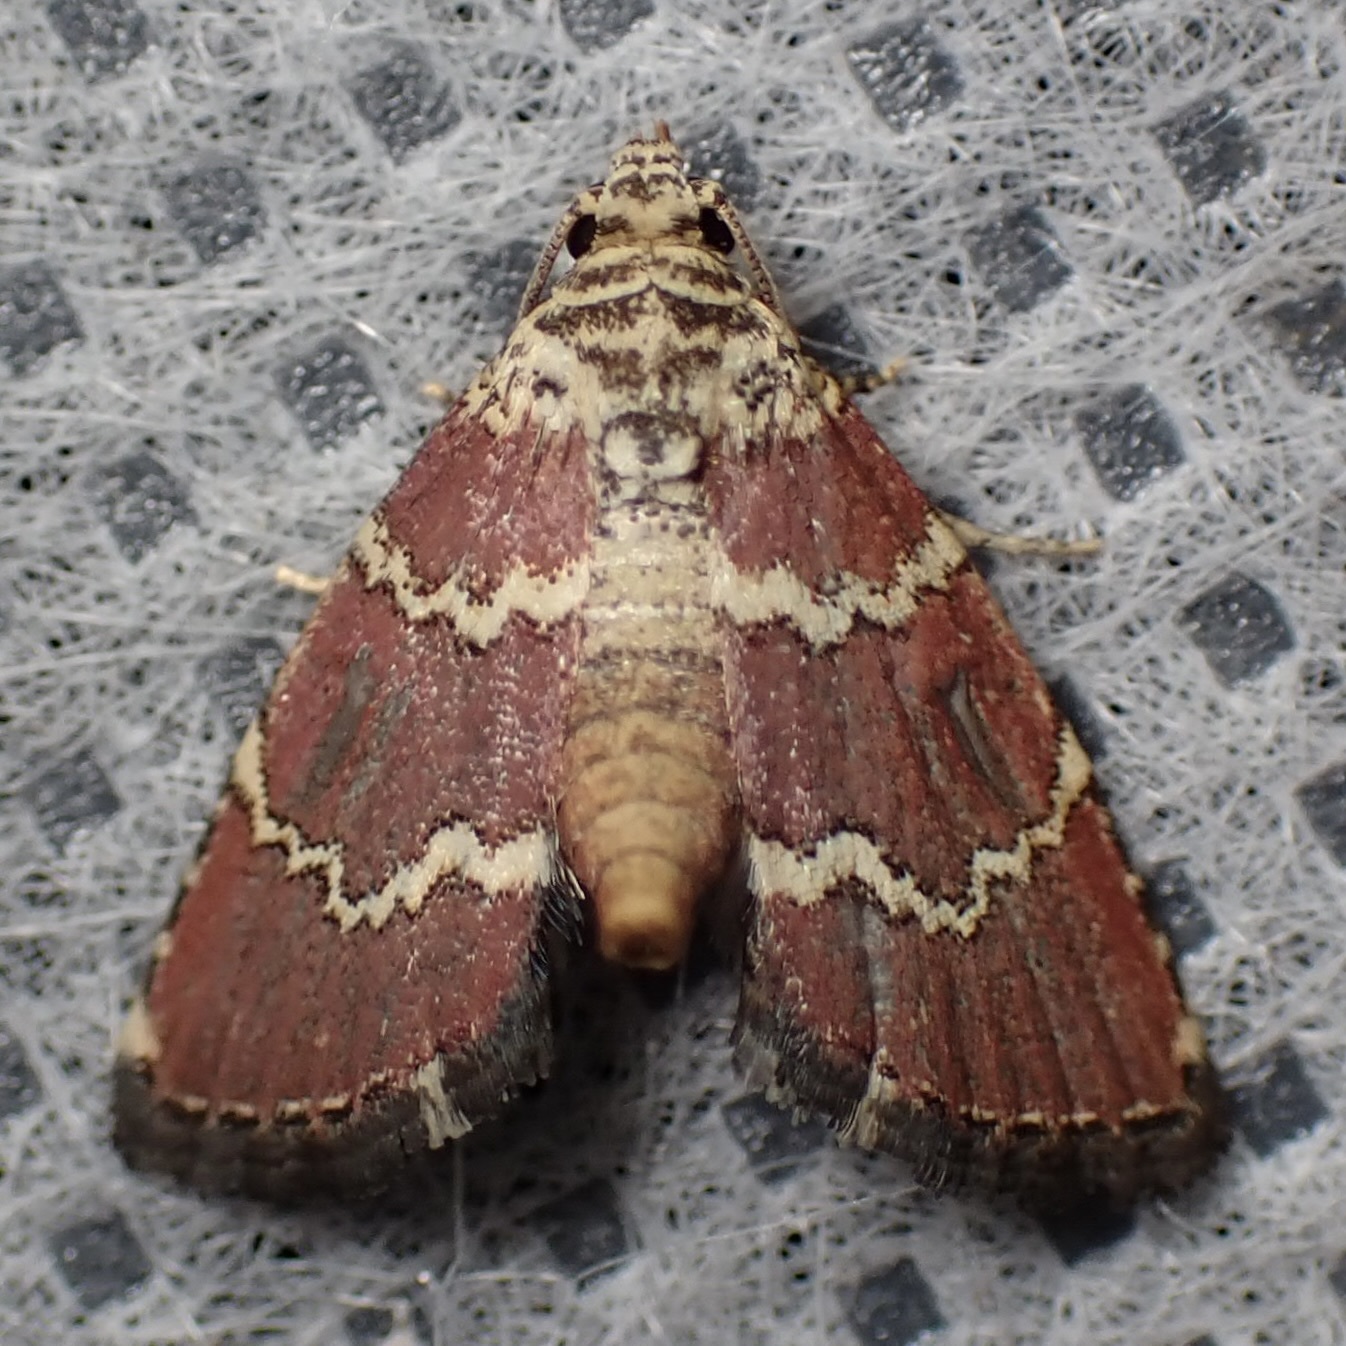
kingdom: Animalia
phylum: Arthropoda
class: Insecta
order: Lepidoptera
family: Noctuidae
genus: Phoenicophanta
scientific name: Phoenicophanta modestula
